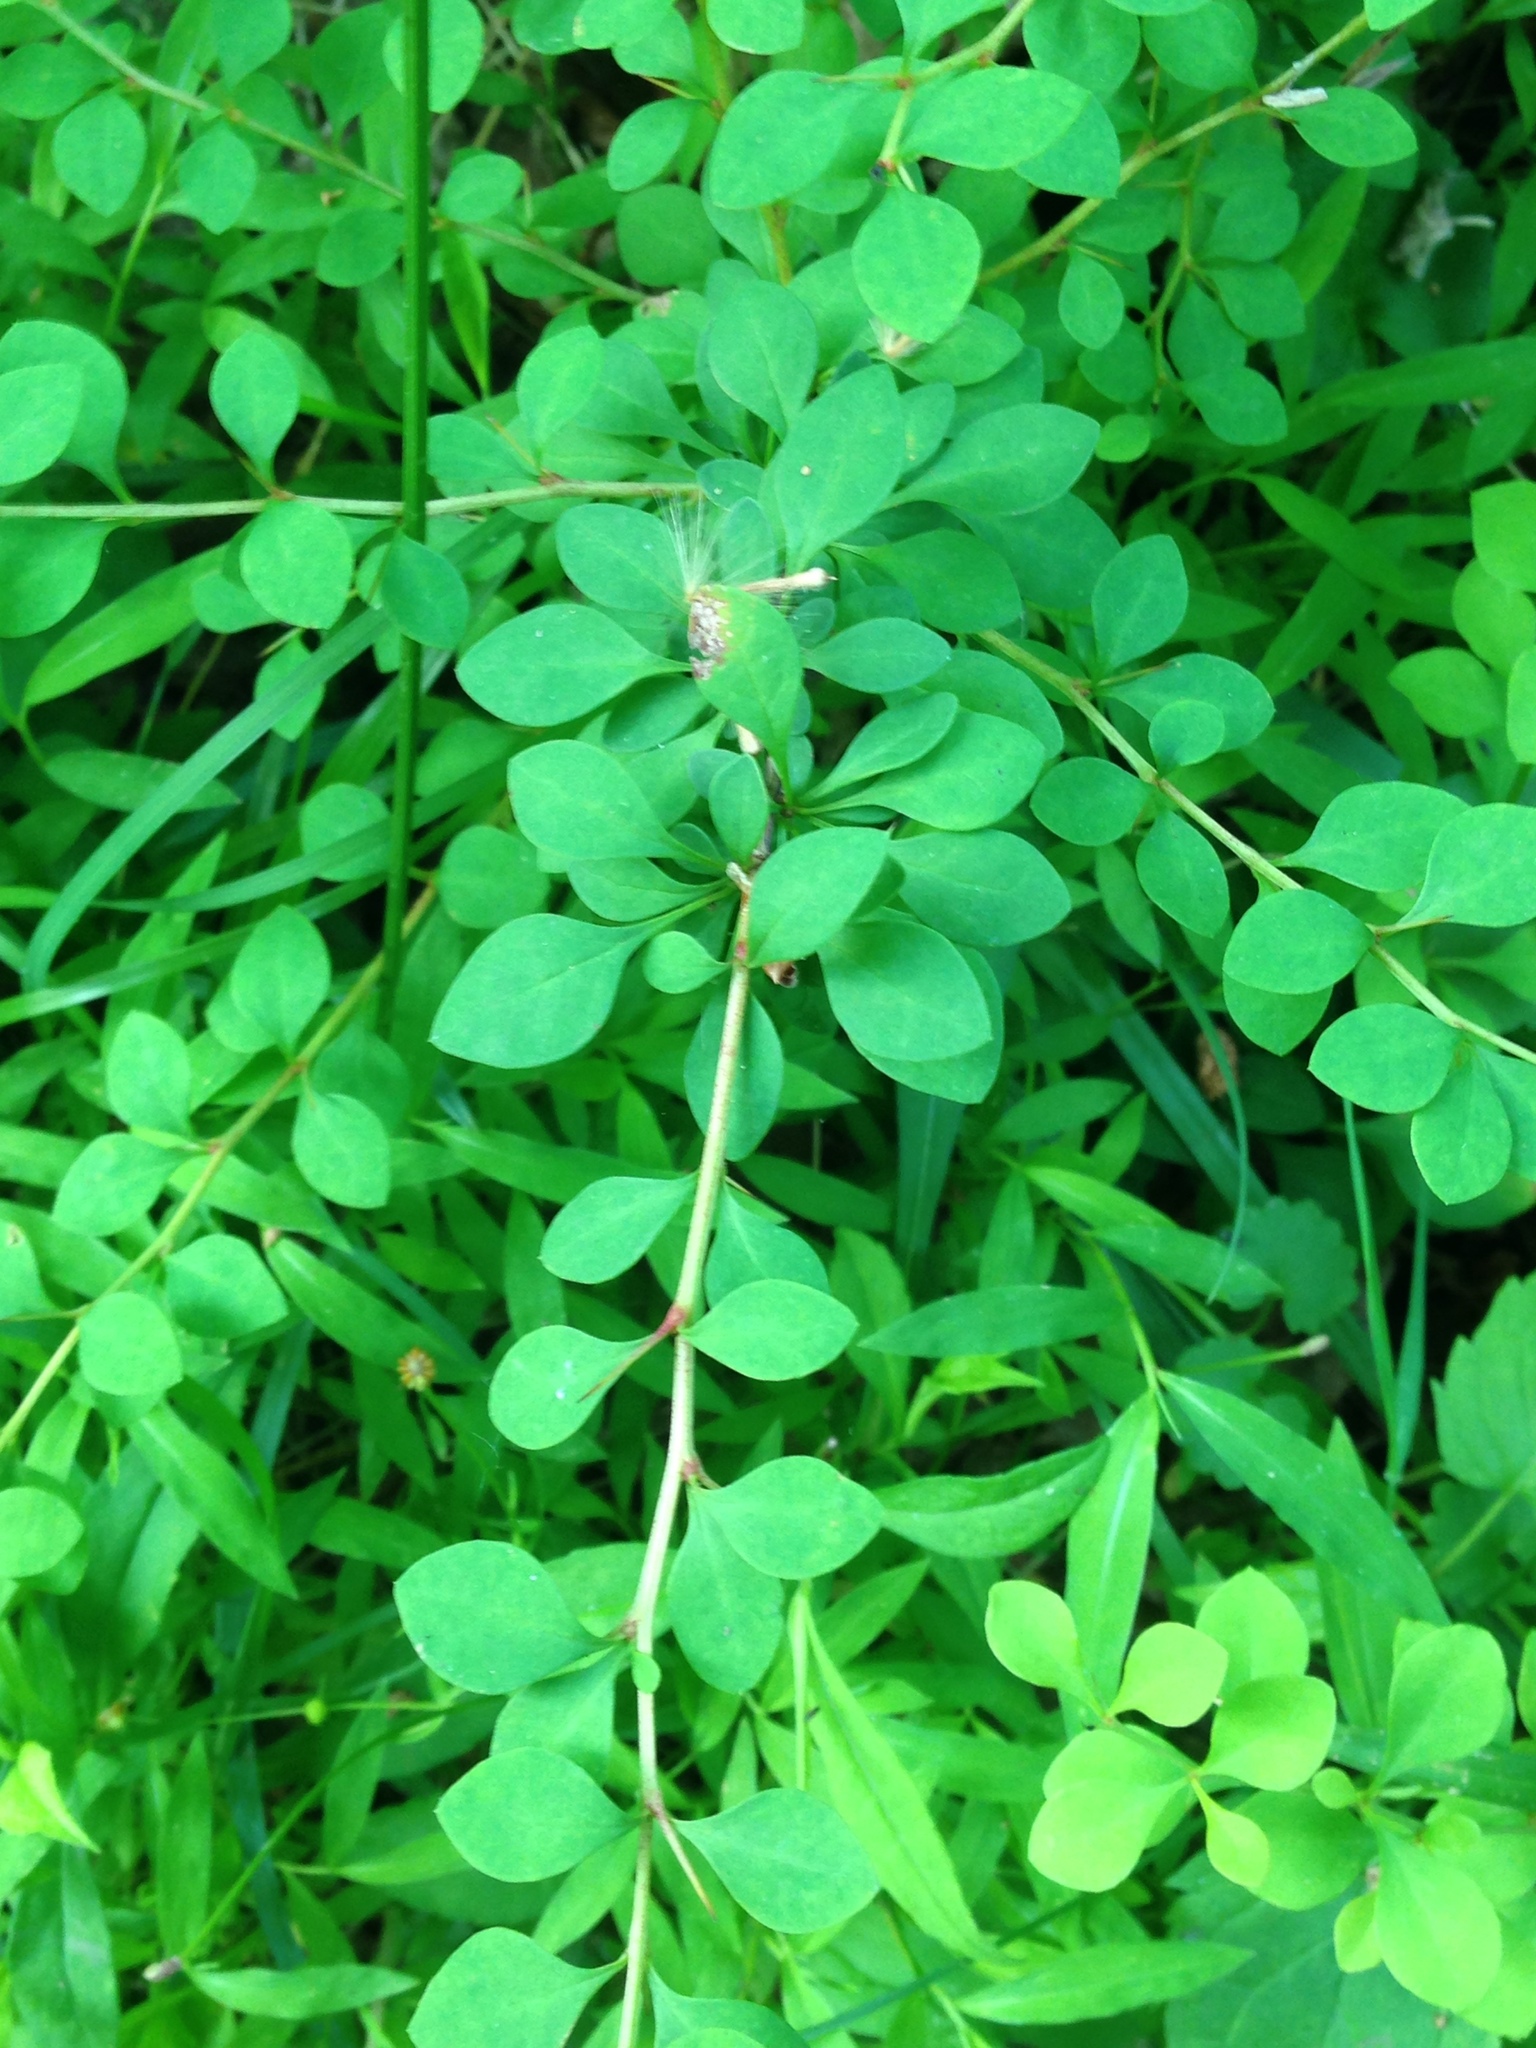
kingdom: Plantae
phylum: Tracheophyta
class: Magnoliopsida
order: Ranunculales
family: Berberidaceae
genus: Berberis
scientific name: Berberis thunbergii
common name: Japanese barberry
